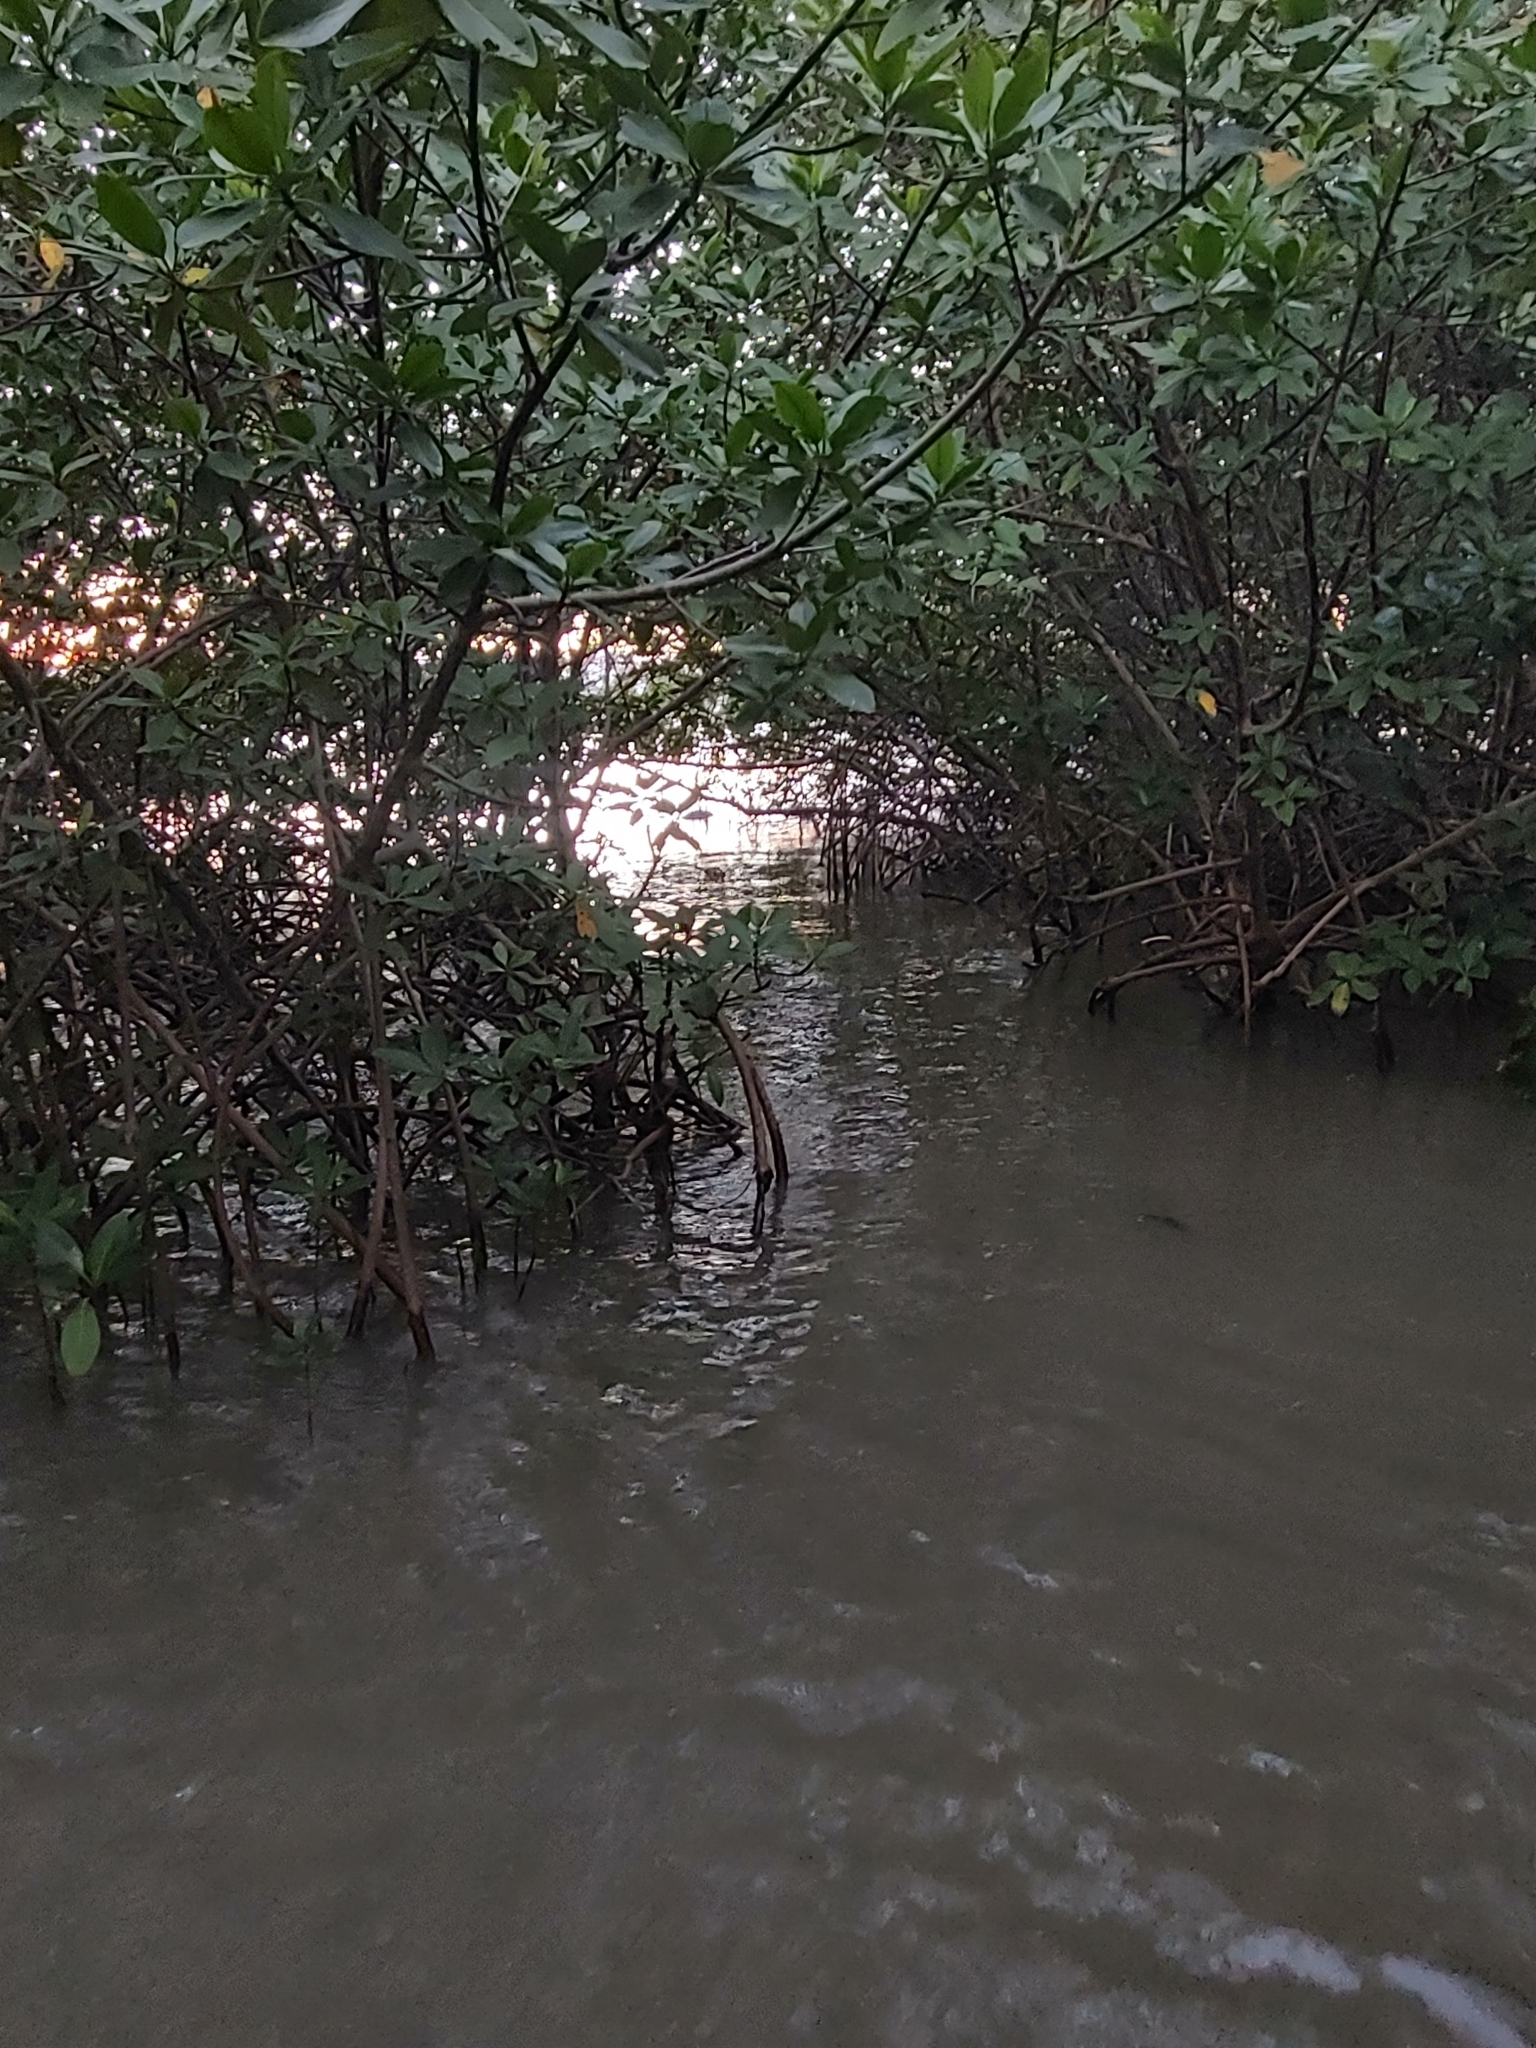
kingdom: Plantae
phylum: Tracheophyta
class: Magnoliopsida
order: Malpighiales
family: Rhizophoraceae
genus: Rhizophora
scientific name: Rhizophora mangle
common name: Red mangrove
